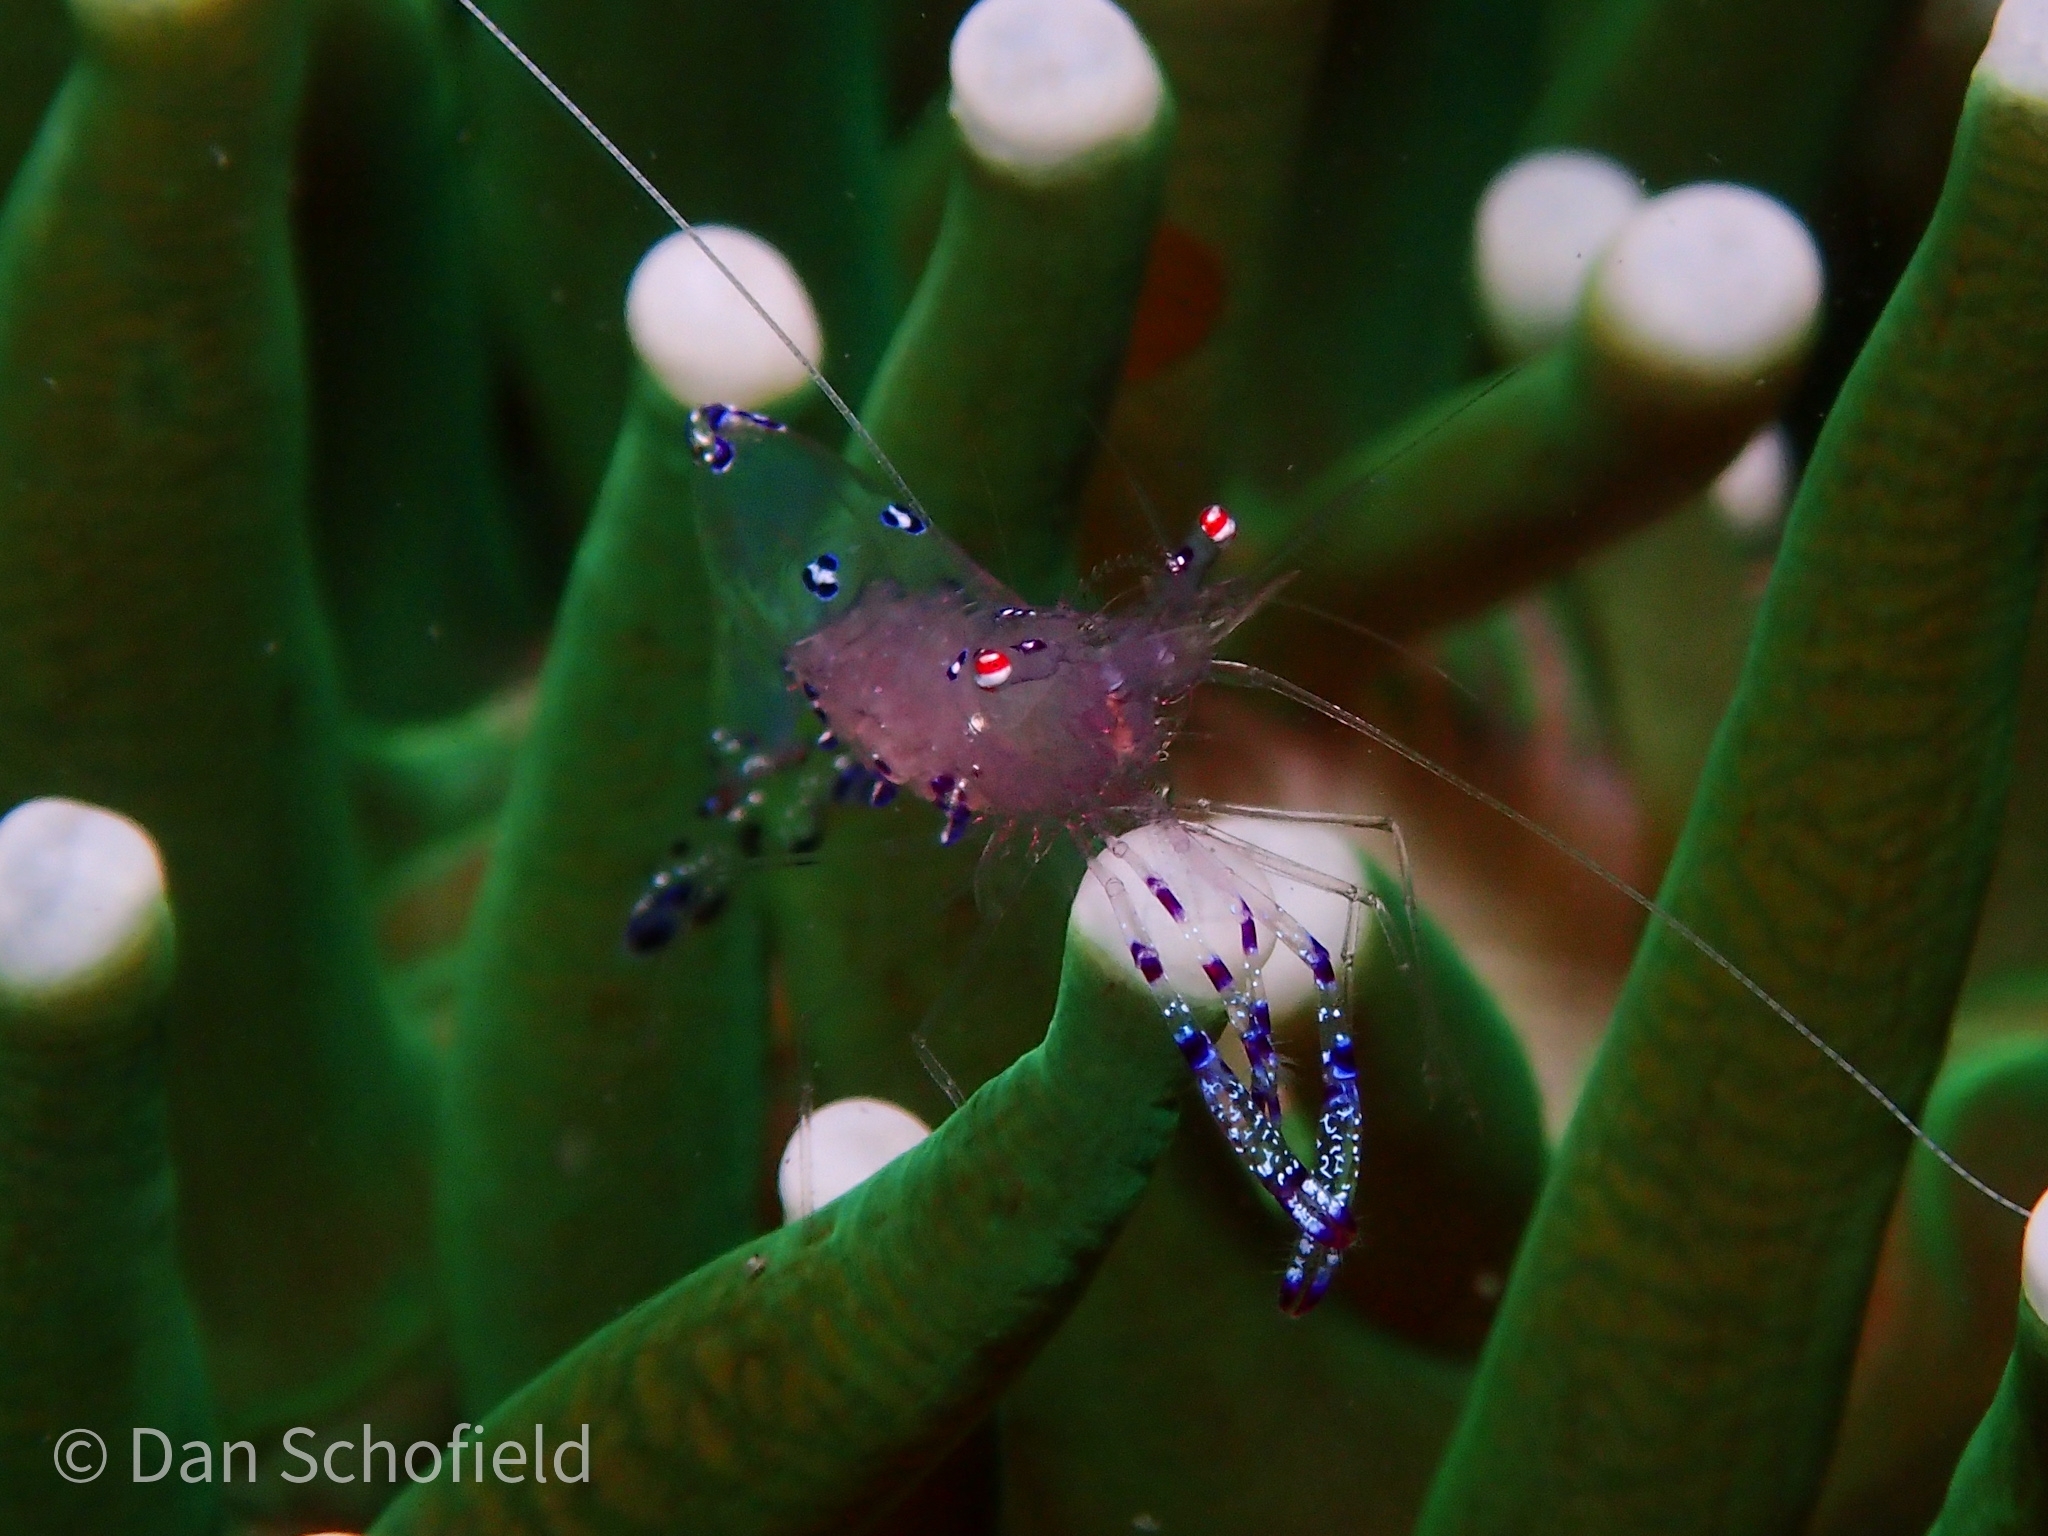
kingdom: Animalia
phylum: Arthropoda
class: Malacostraca
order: Decapoda
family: Palaemonidae
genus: Ancylomenes
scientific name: Ancylomenes sarasvati
